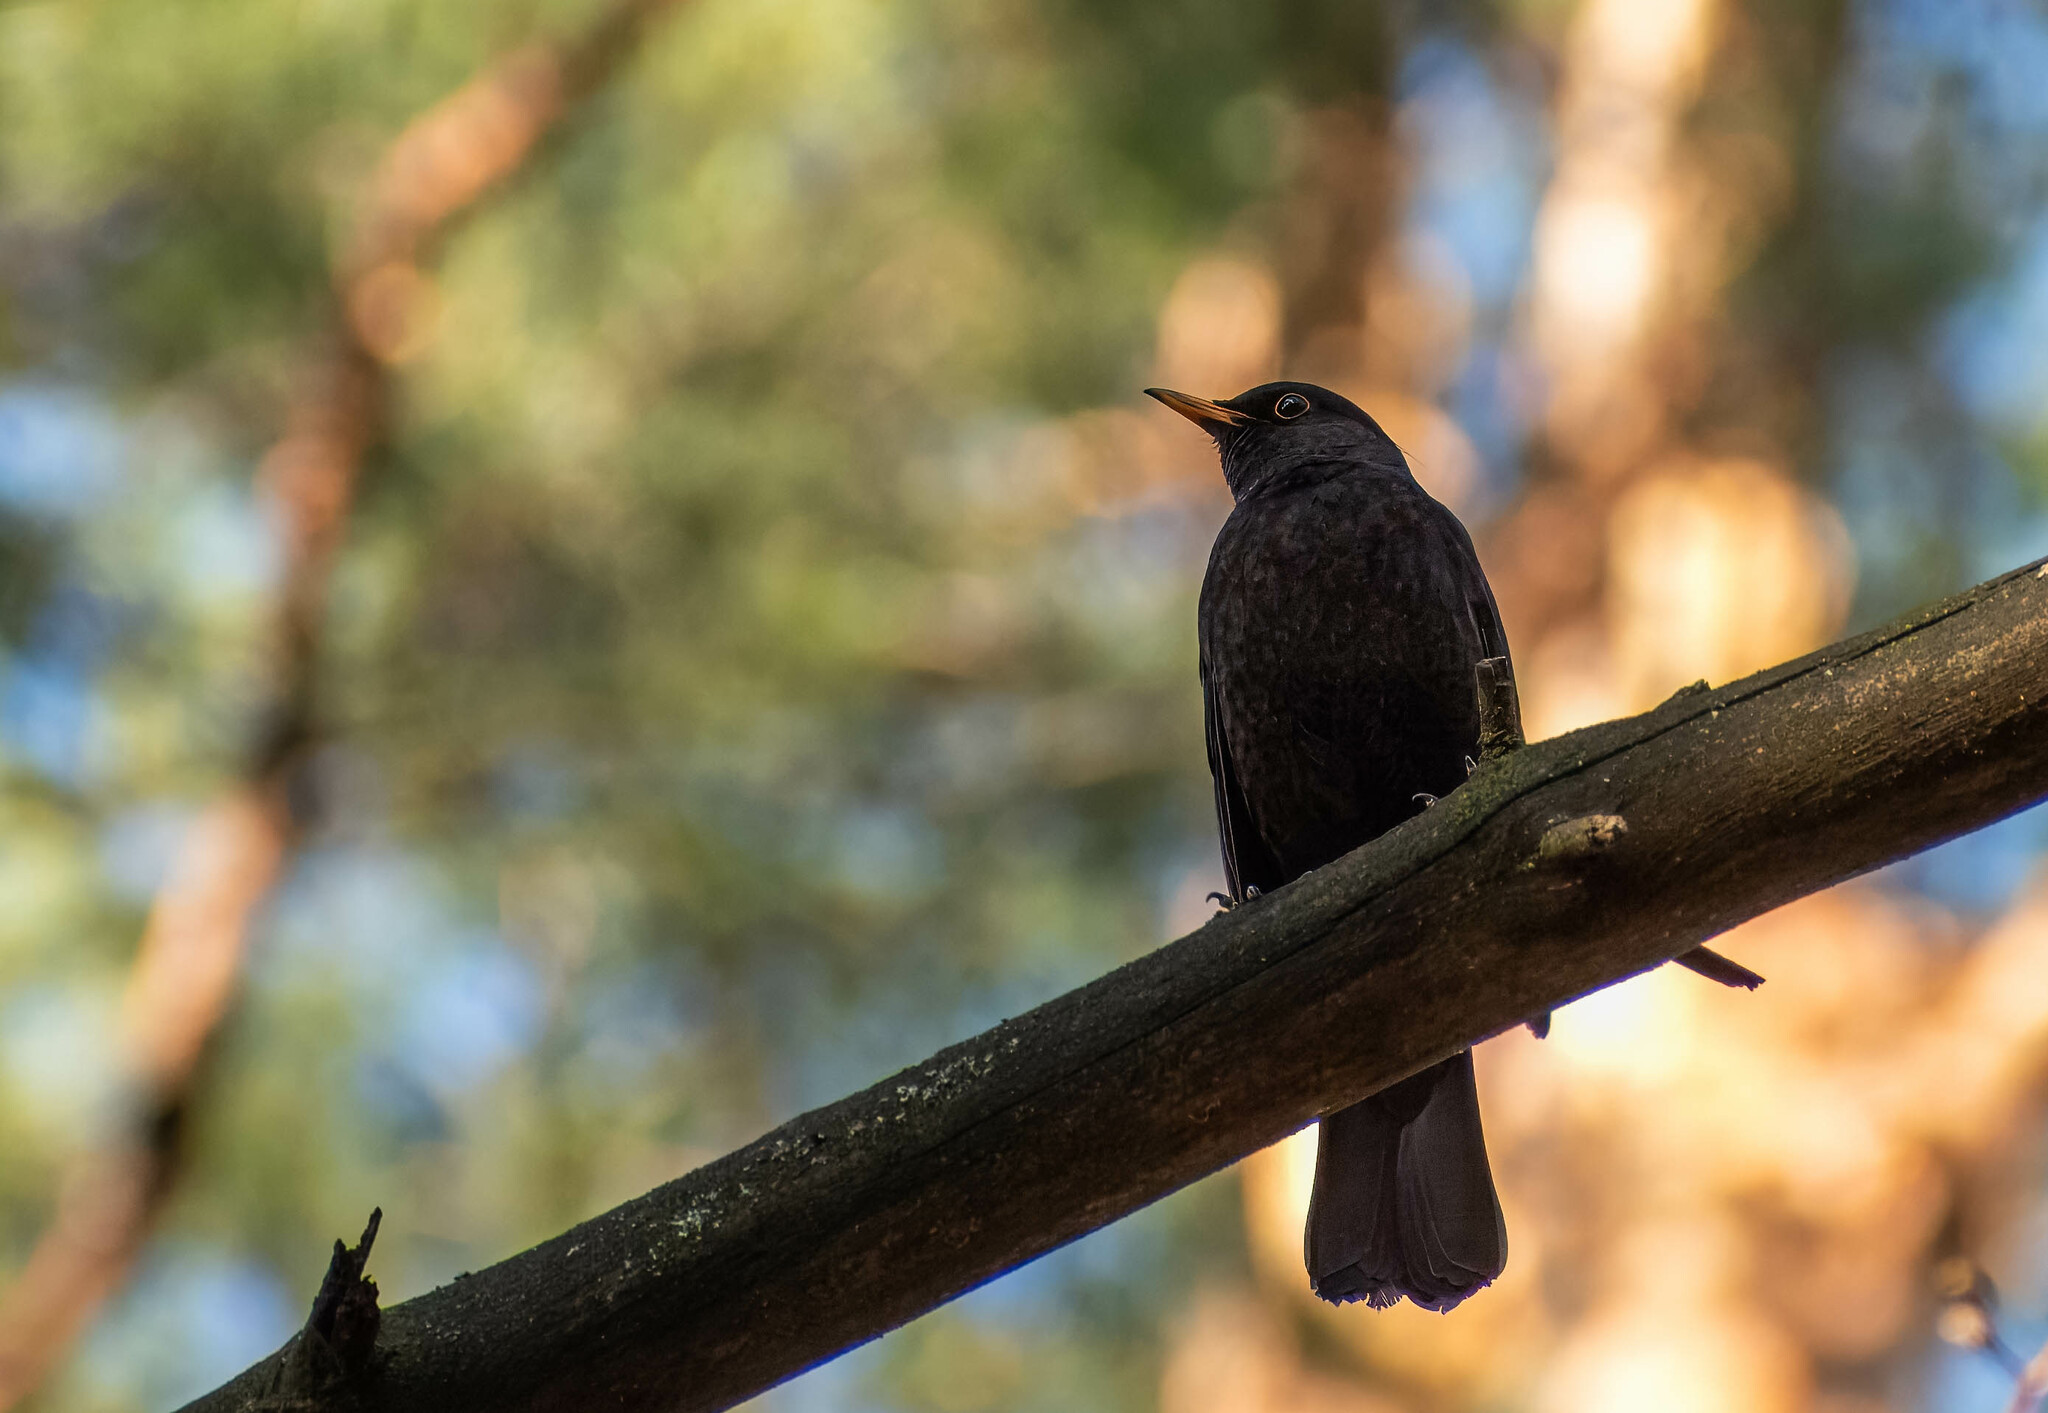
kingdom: Animalia
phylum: Chordata
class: Aves
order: Passeriformes
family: Turdidae
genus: Turdus
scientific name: Turdus merula
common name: Common blackbird
